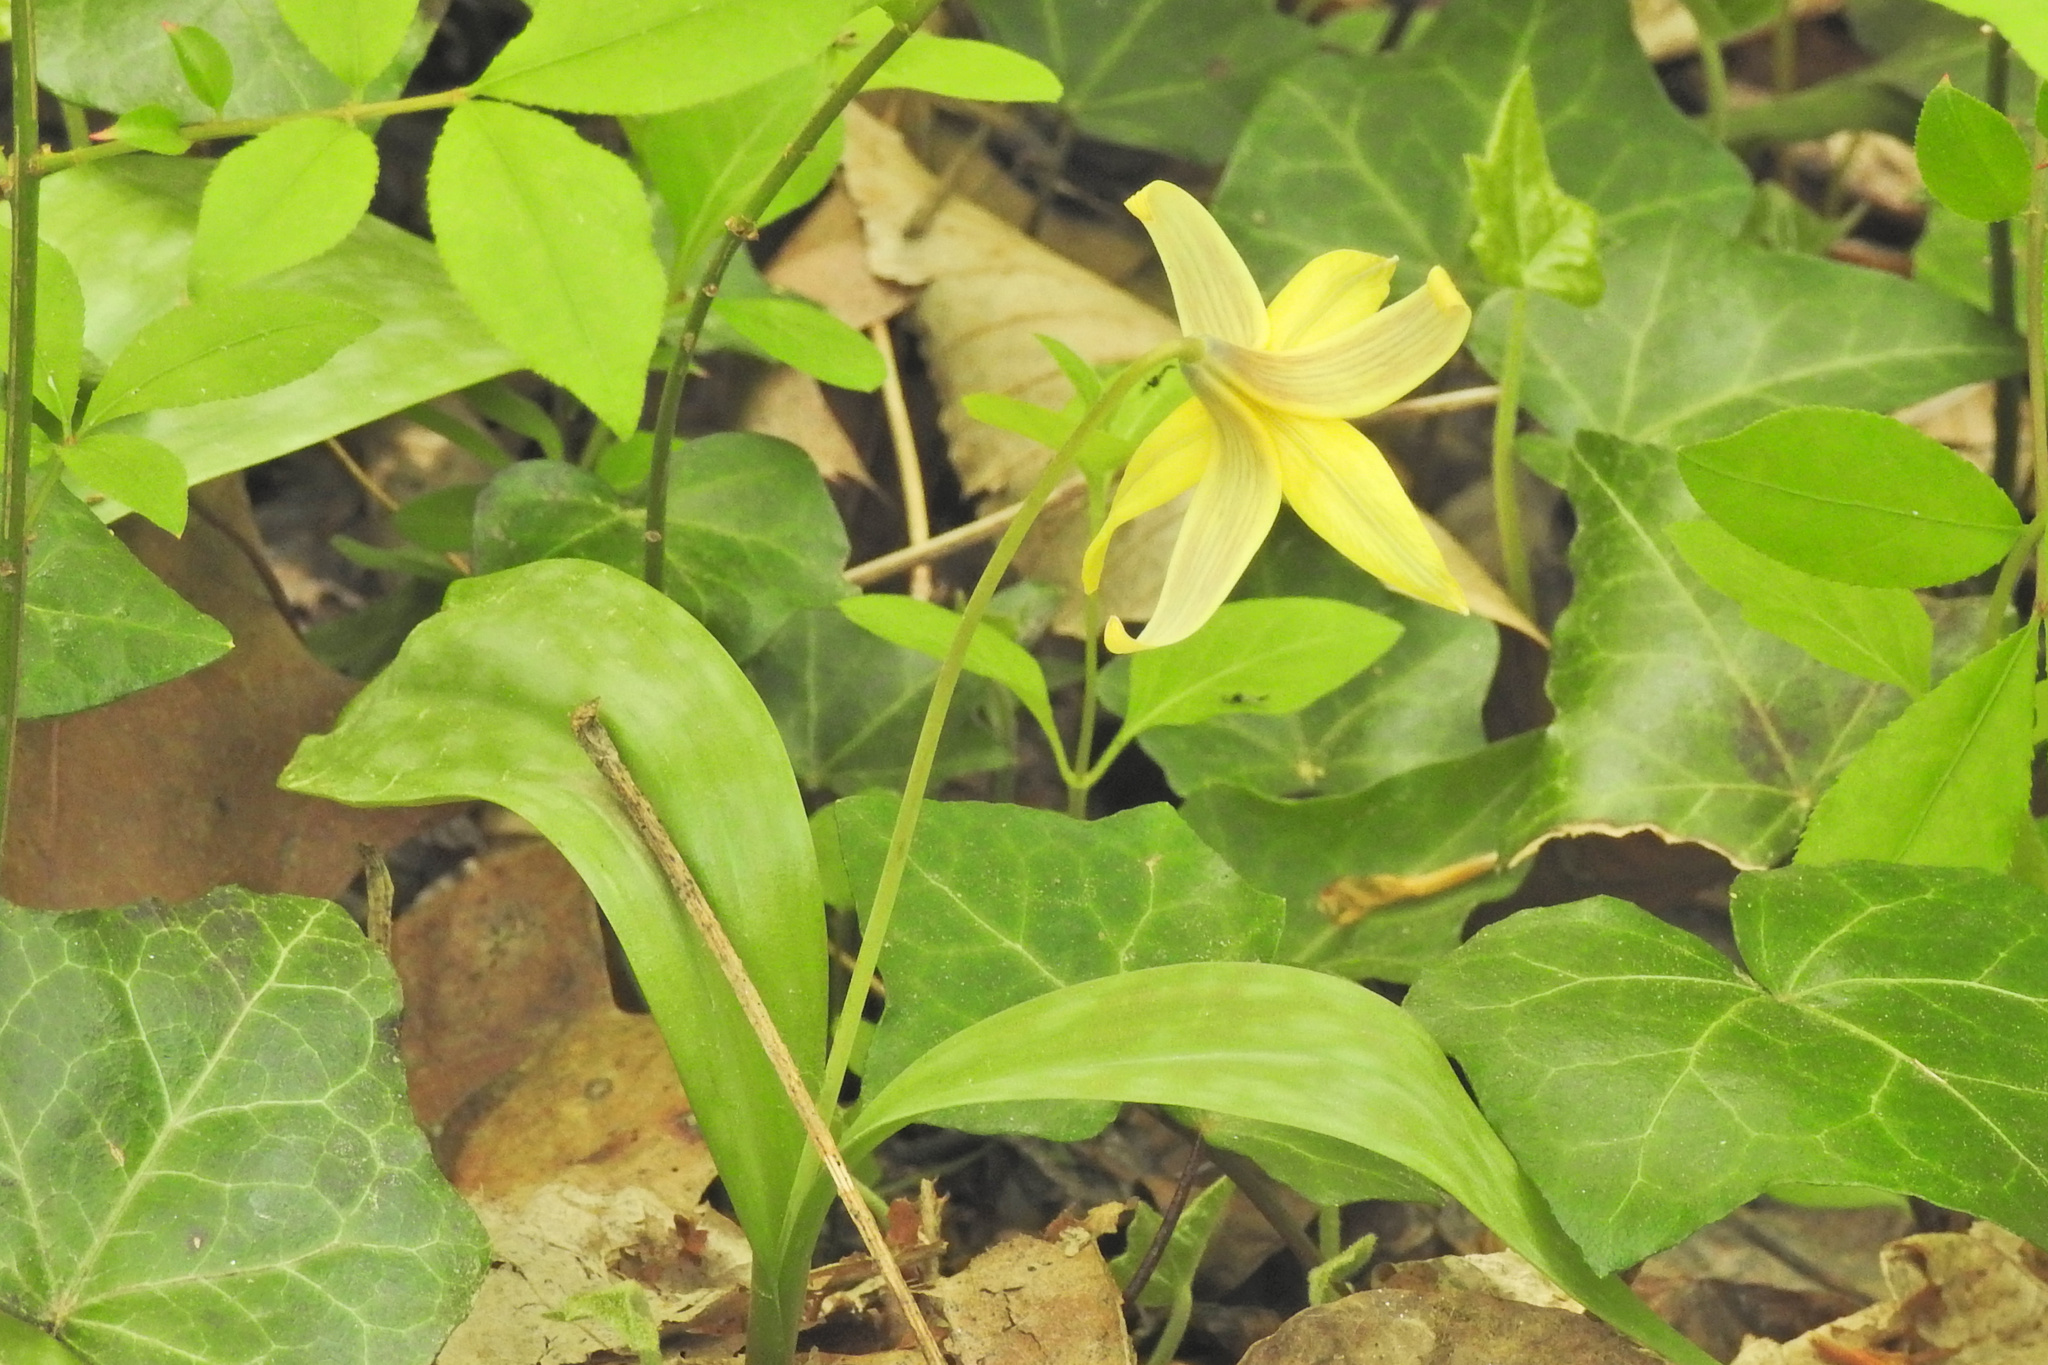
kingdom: Plantae
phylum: Tracheophyta
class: Liliopsida
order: Liliales
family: Liliaceae
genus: Erythronium
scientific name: Erythronium americanum
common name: Yellow adder's-tongue
